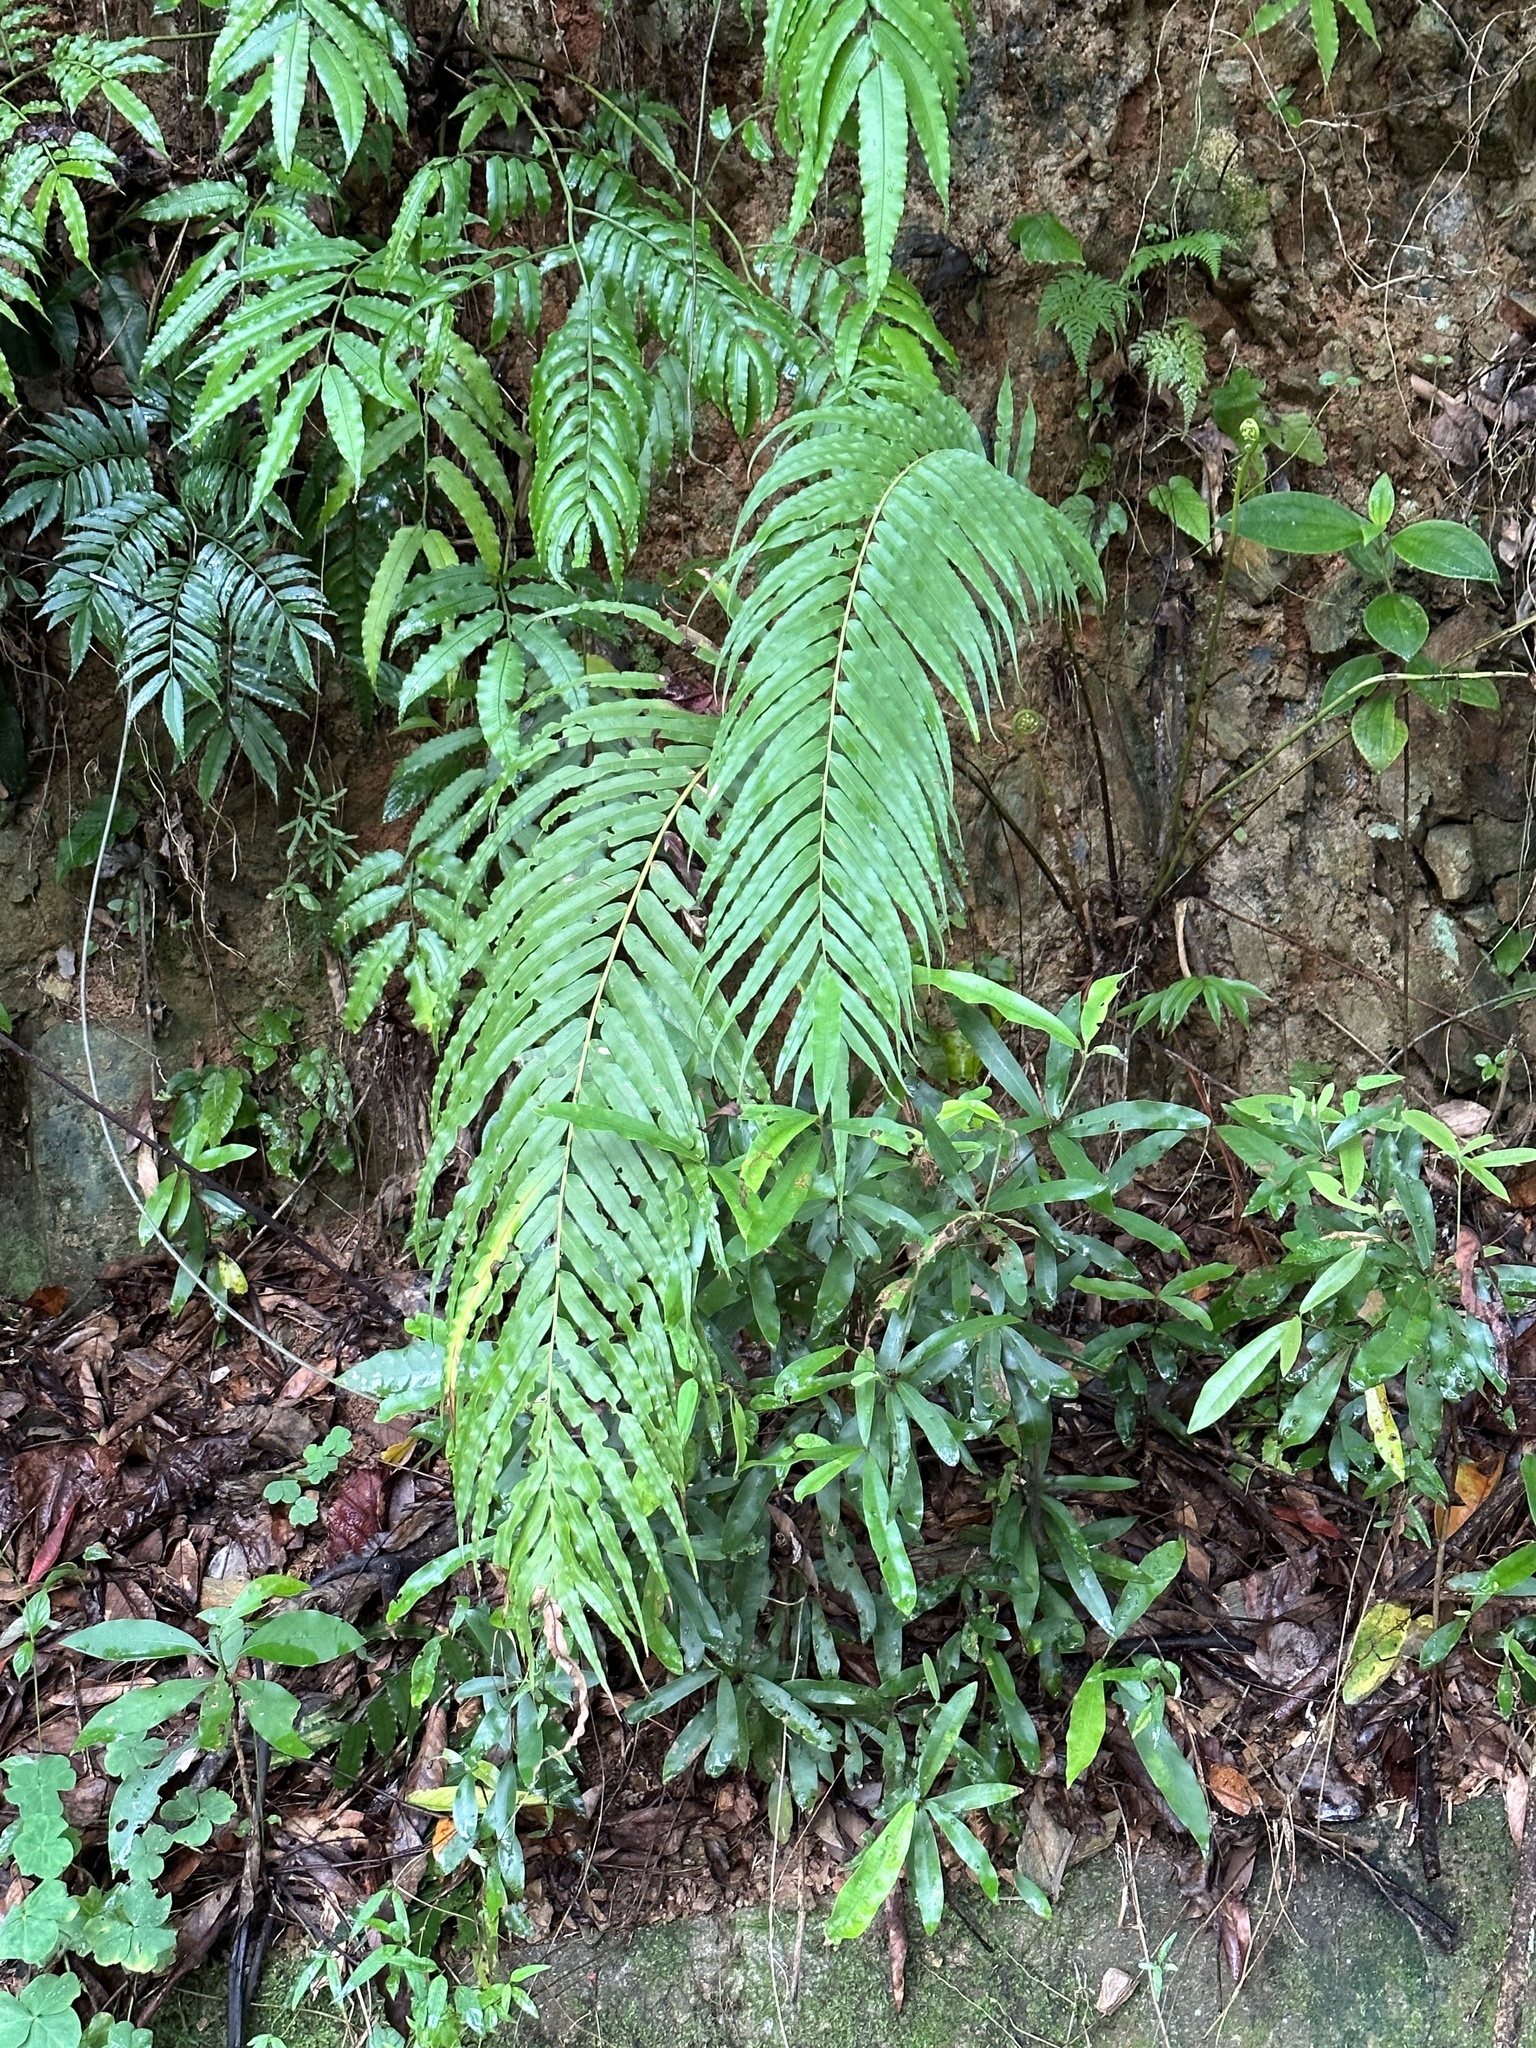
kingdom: Plantae
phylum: Tracheophyta
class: Polypodiopsida
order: Polypodiales
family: Blechnaceae
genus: Blechnopsis
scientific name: Blechnopsis orientalis
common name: Oriental blechnum
